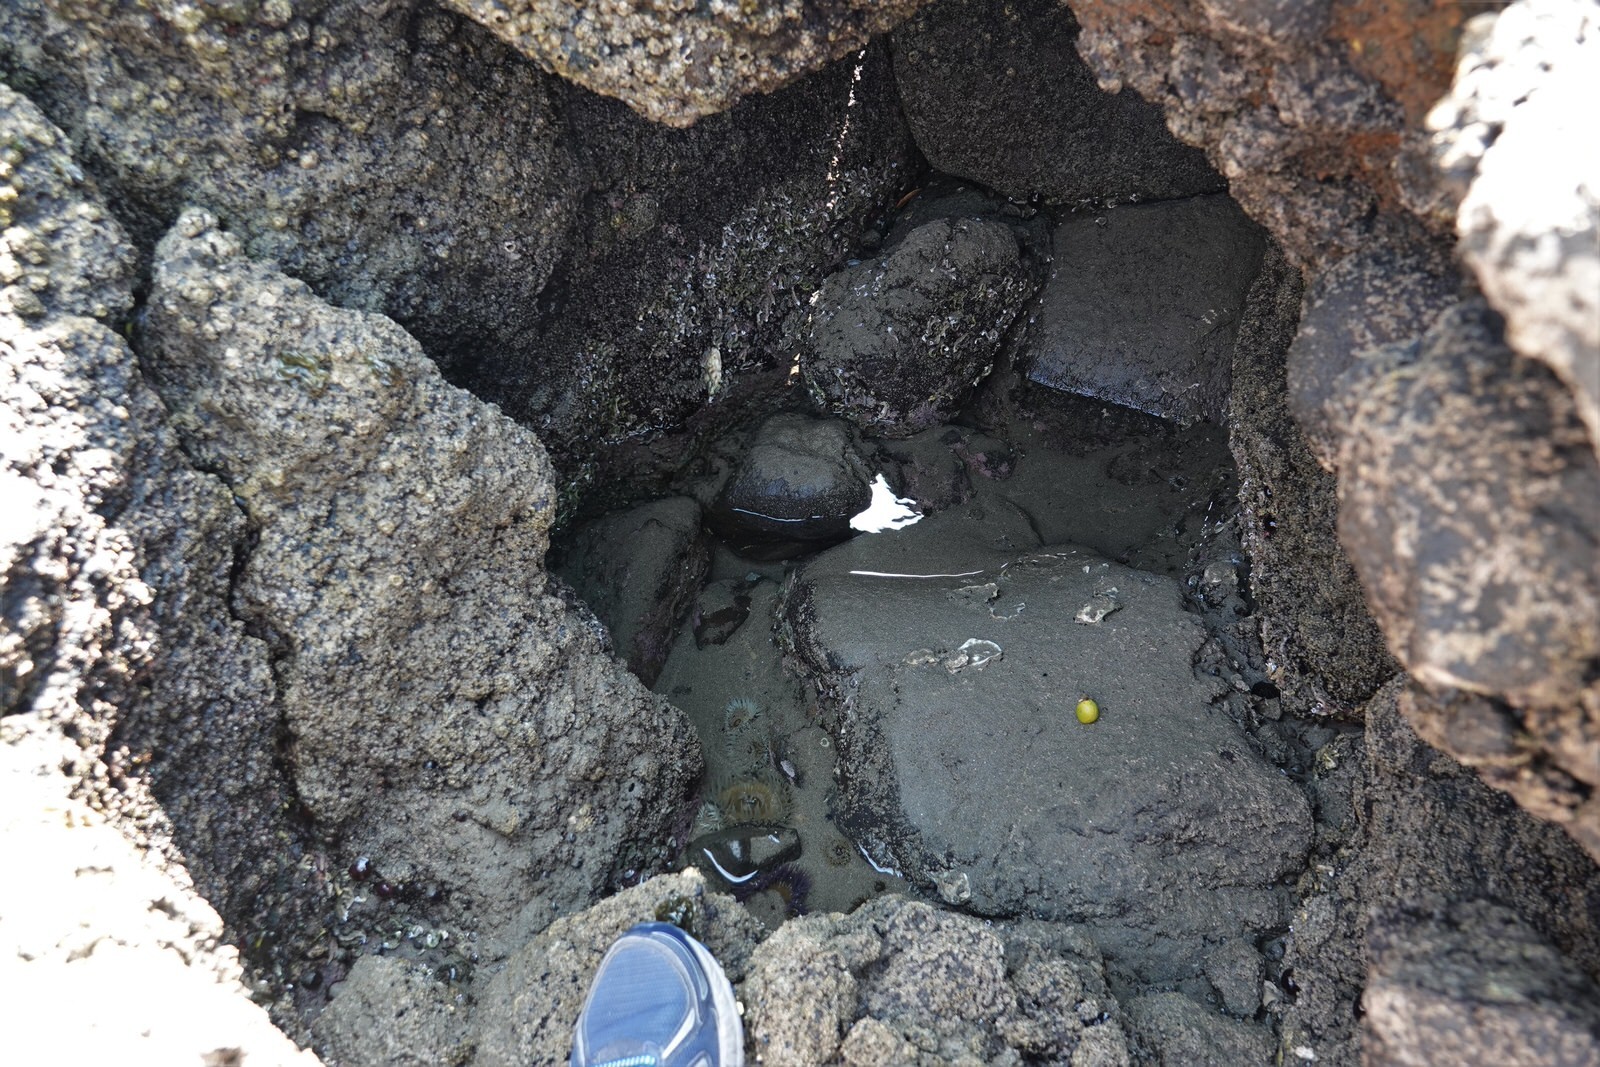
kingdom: Animalia
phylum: Cnidaria
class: Anthozoa
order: Actiniaria
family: Actiniidae
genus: Oulactis
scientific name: Oulactis magna
